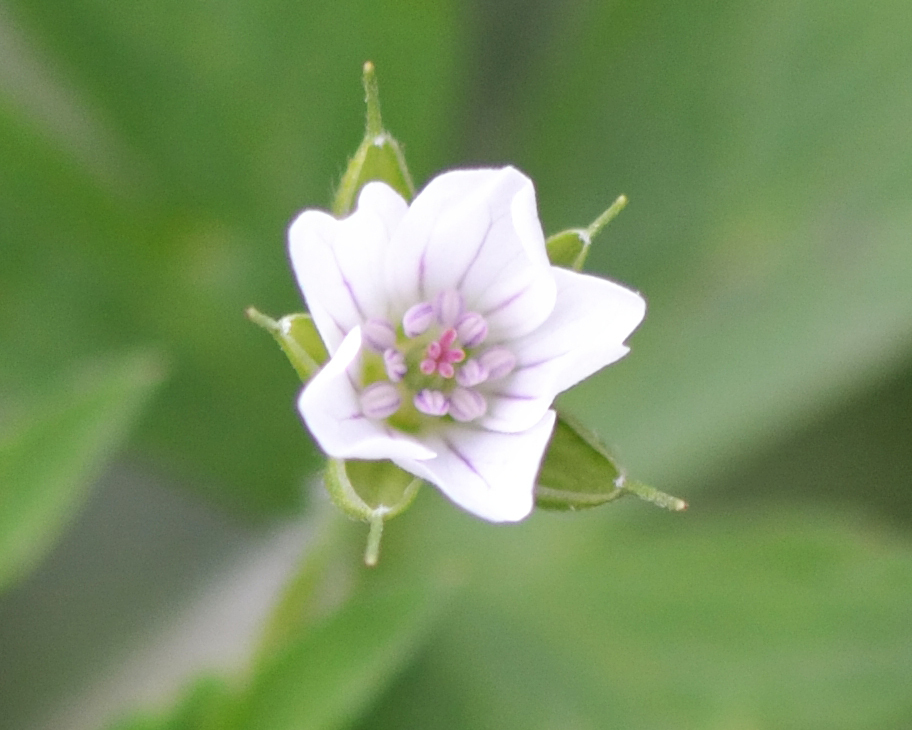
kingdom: Plantae
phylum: Tracheophyta
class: Magnoliopsida
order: Geraniales
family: Geraniaceae
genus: Geranium
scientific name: Geranium sibiricum
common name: Siberian crane's-bill
